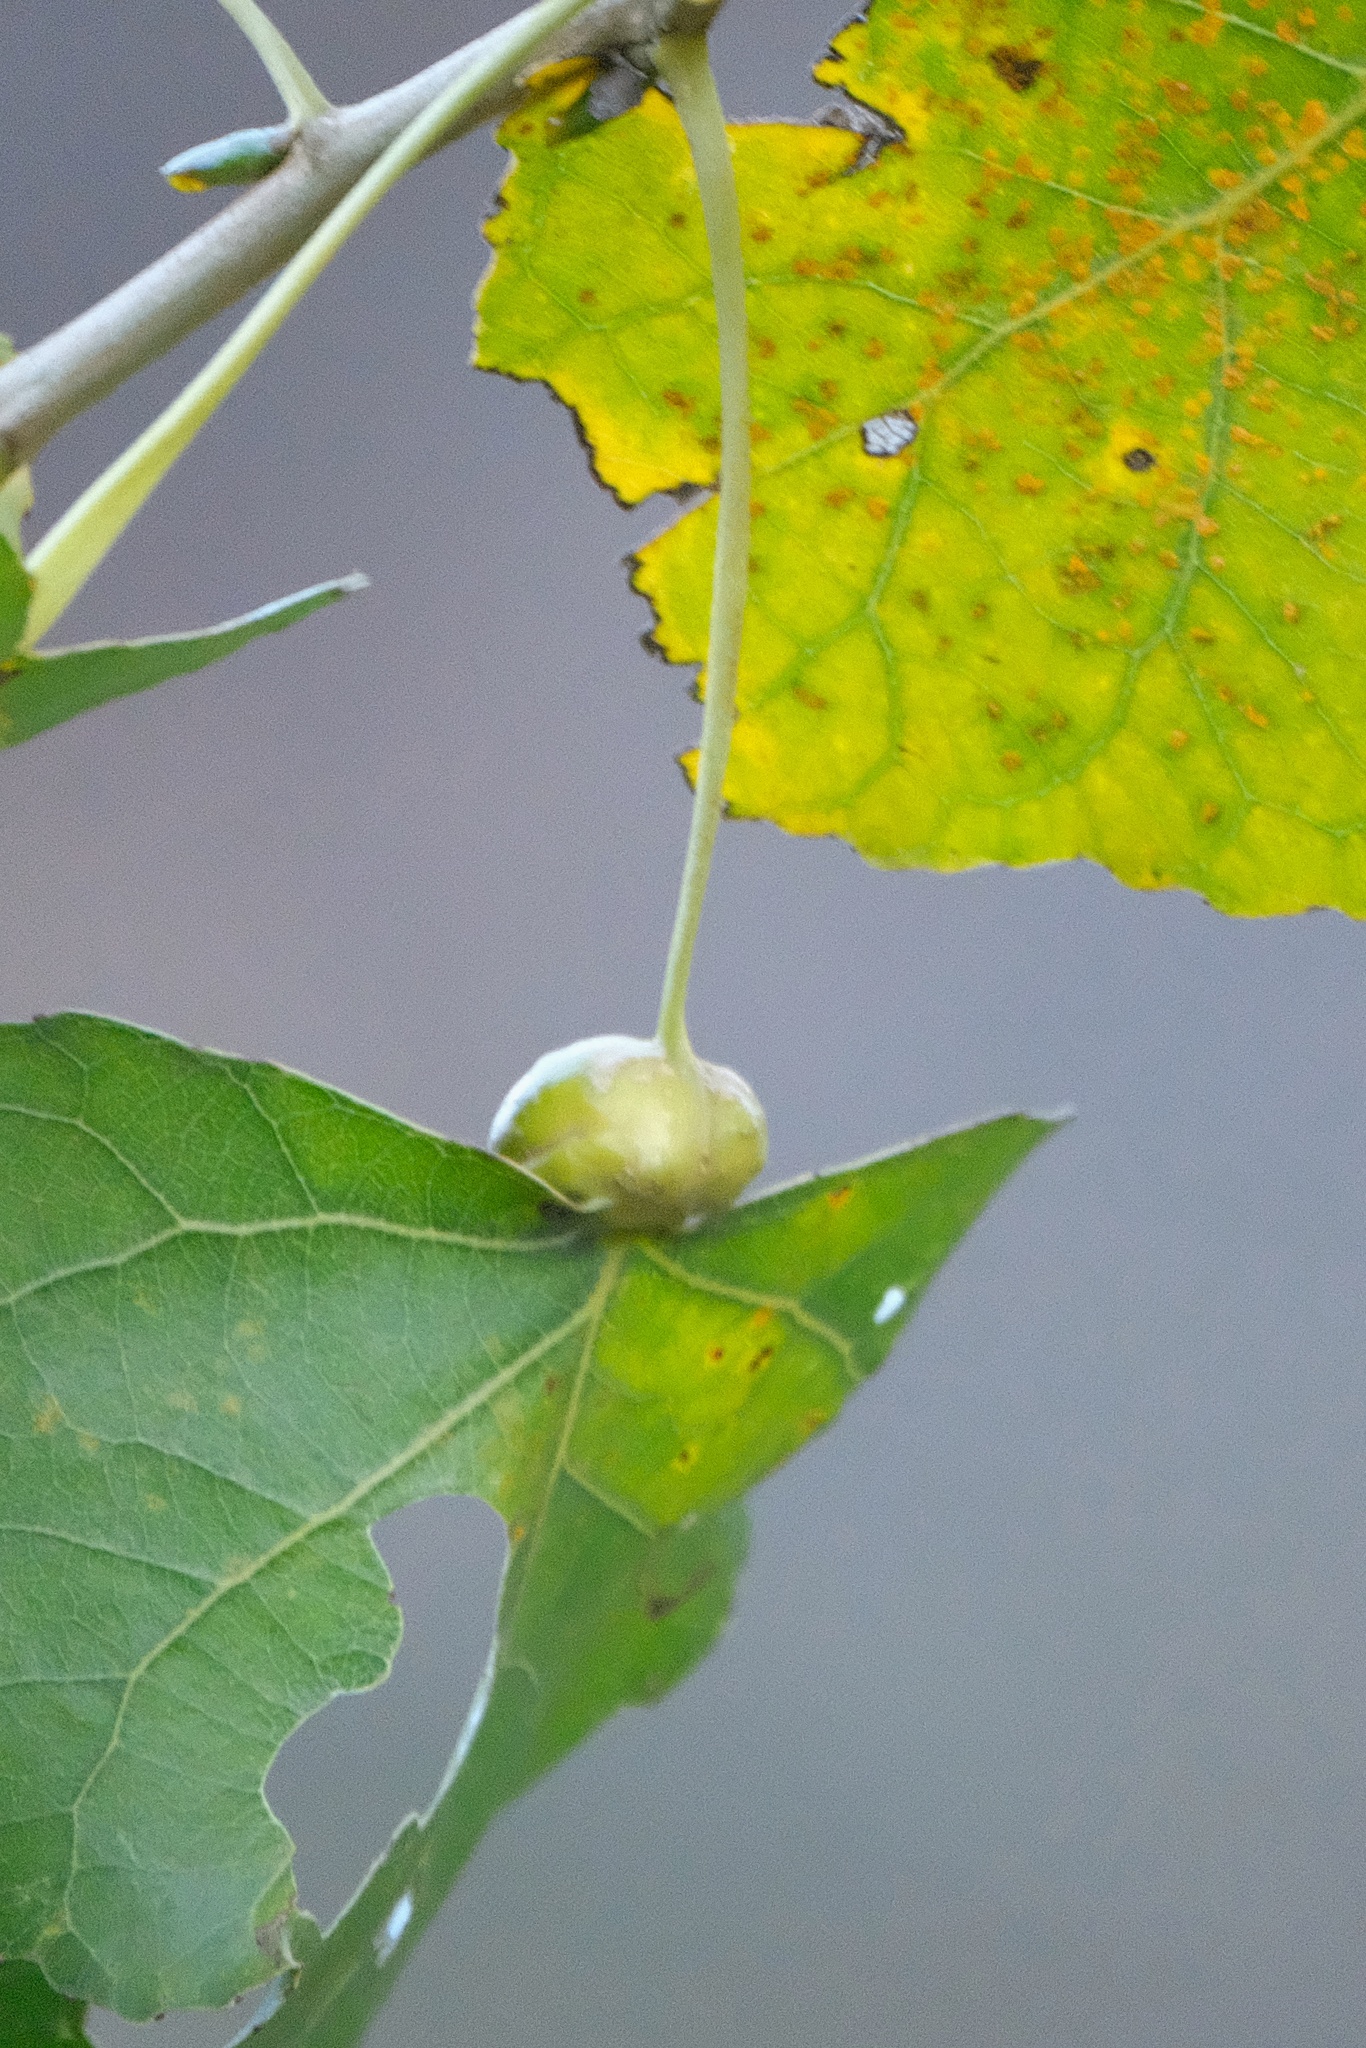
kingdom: Animalia
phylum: Arthropoda
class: Insecta
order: Hemiptera
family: Aphididae
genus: Pemphigus
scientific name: Pemphigus obesinymphae
